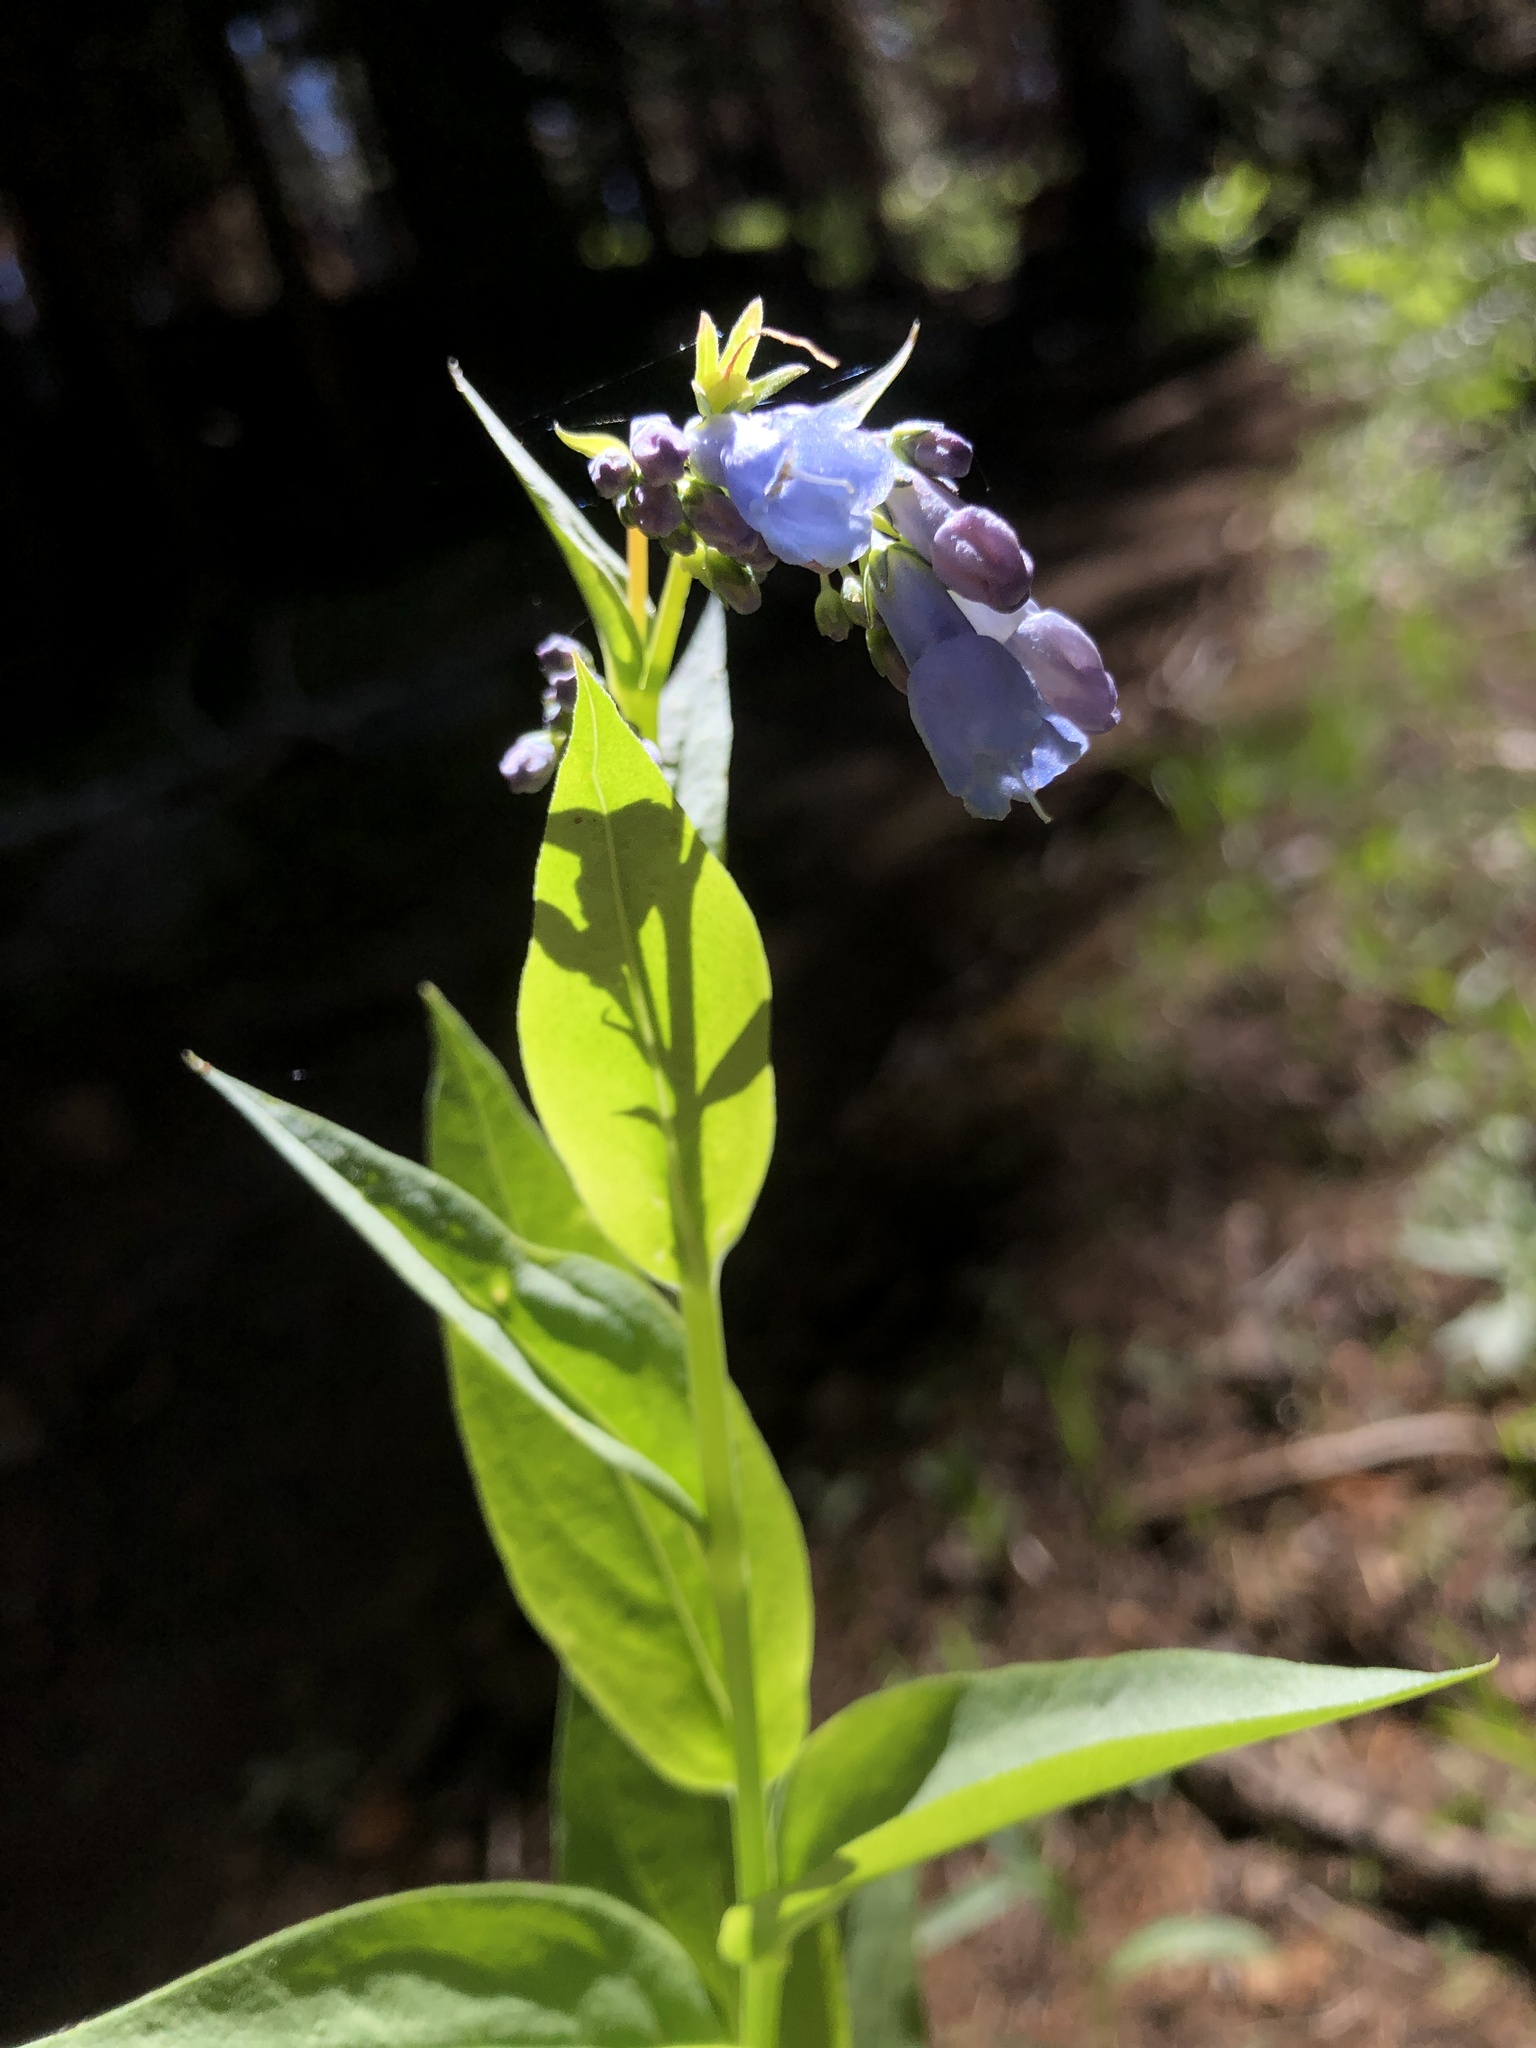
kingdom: Plantae
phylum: Tracheophyta
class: Magnoliopsida
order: Boraginales
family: Boraginaceae
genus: Mertensia
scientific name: Mertensia ciliata
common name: Tall chiming-bells
